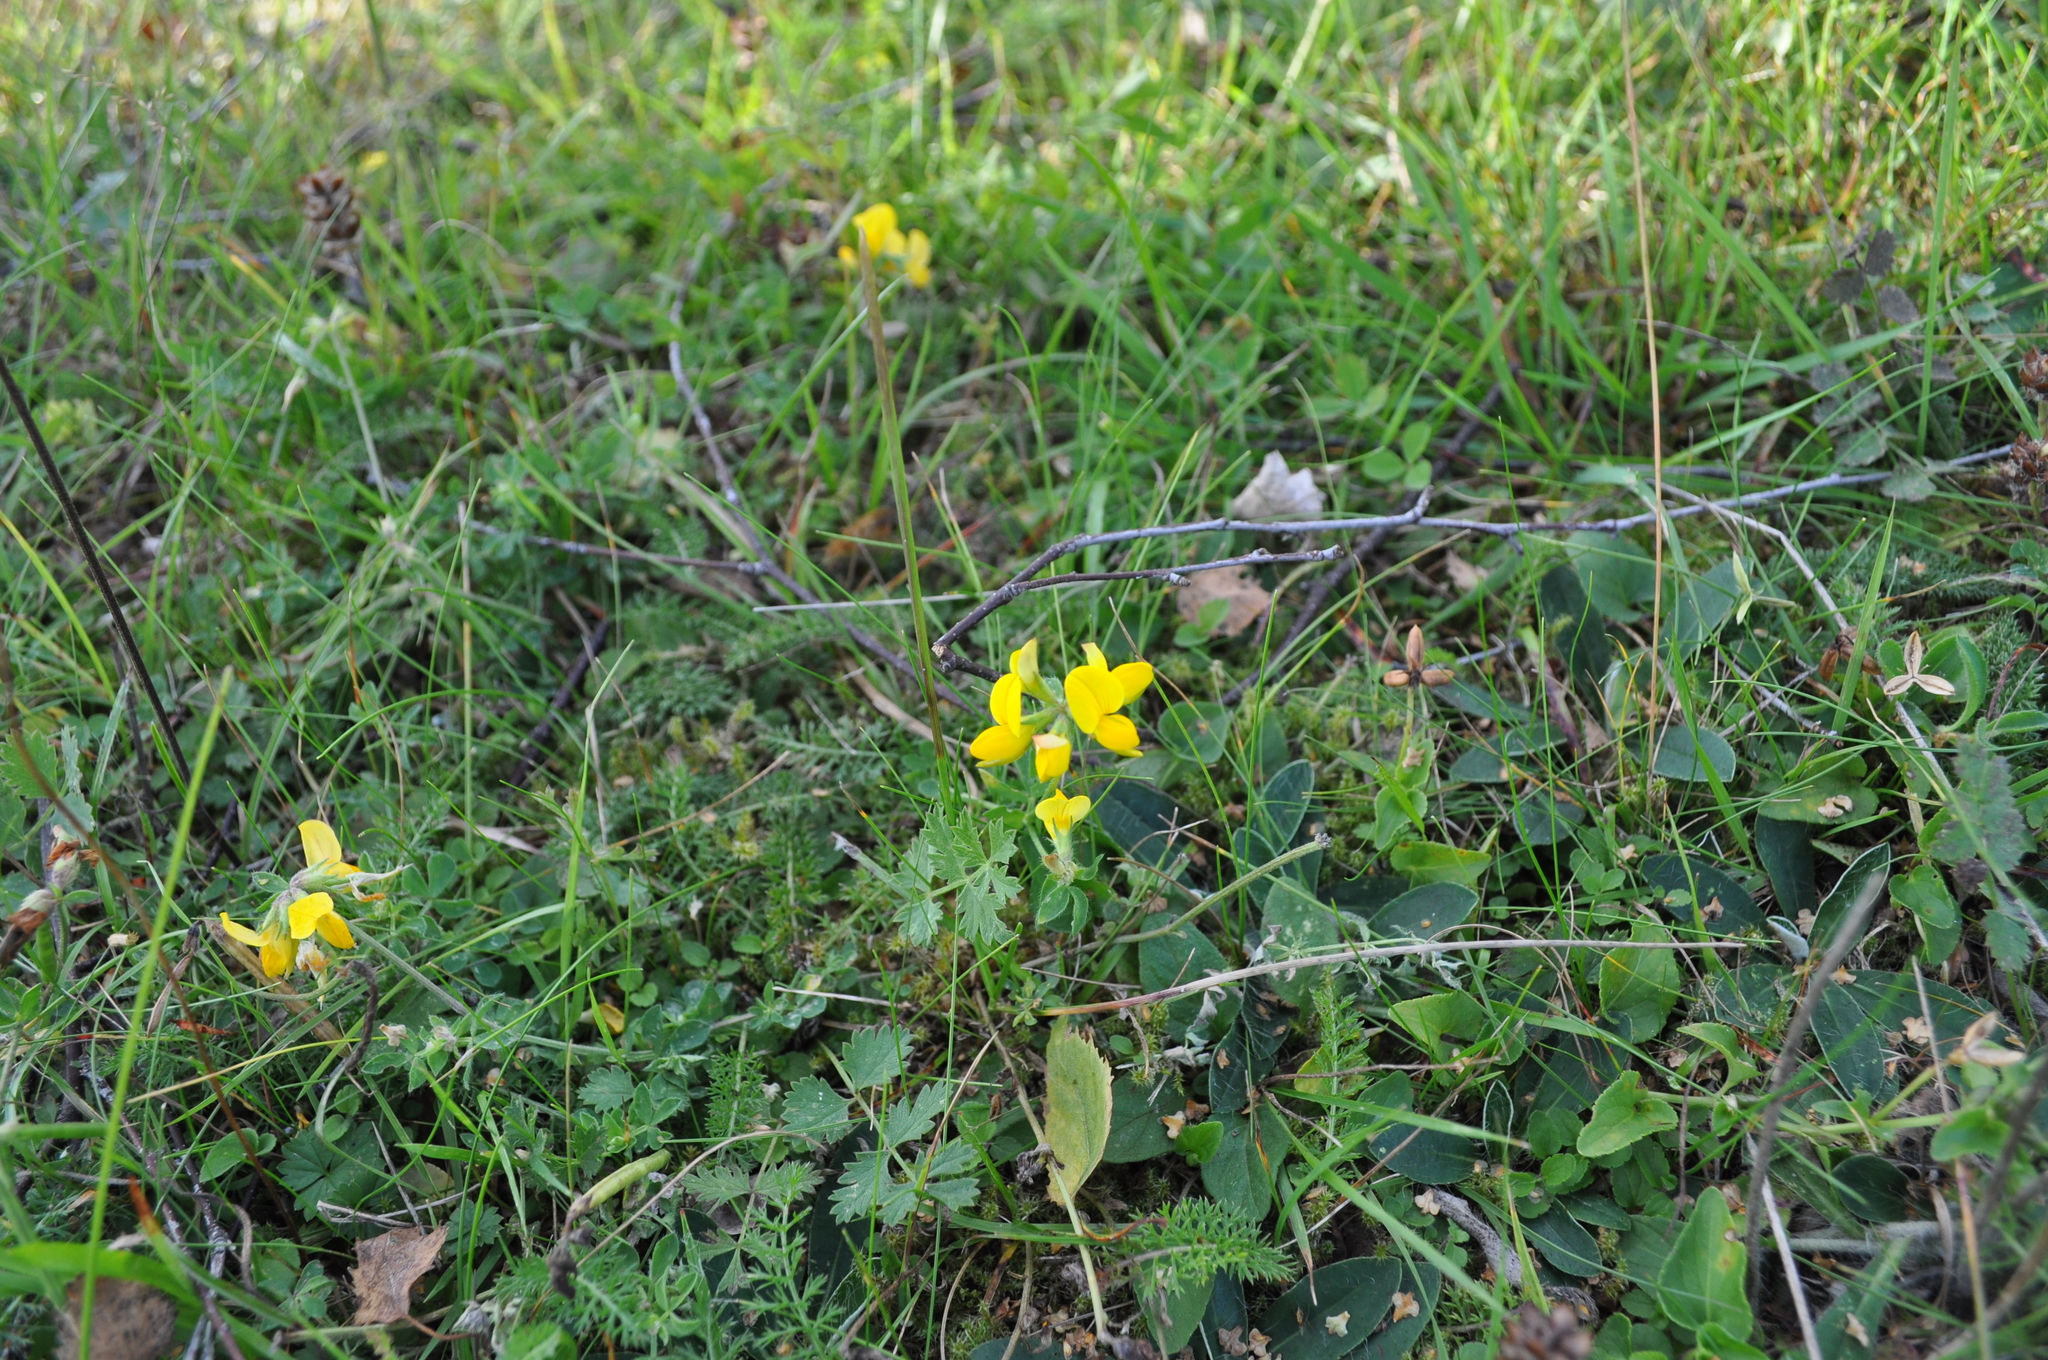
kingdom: Plantae
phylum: Tracheophyta
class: Magnoliopsida
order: Fabales
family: Fabaceae
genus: Lotus
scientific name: Lotus corniculatus
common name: Common bird's-foot-trefoil
